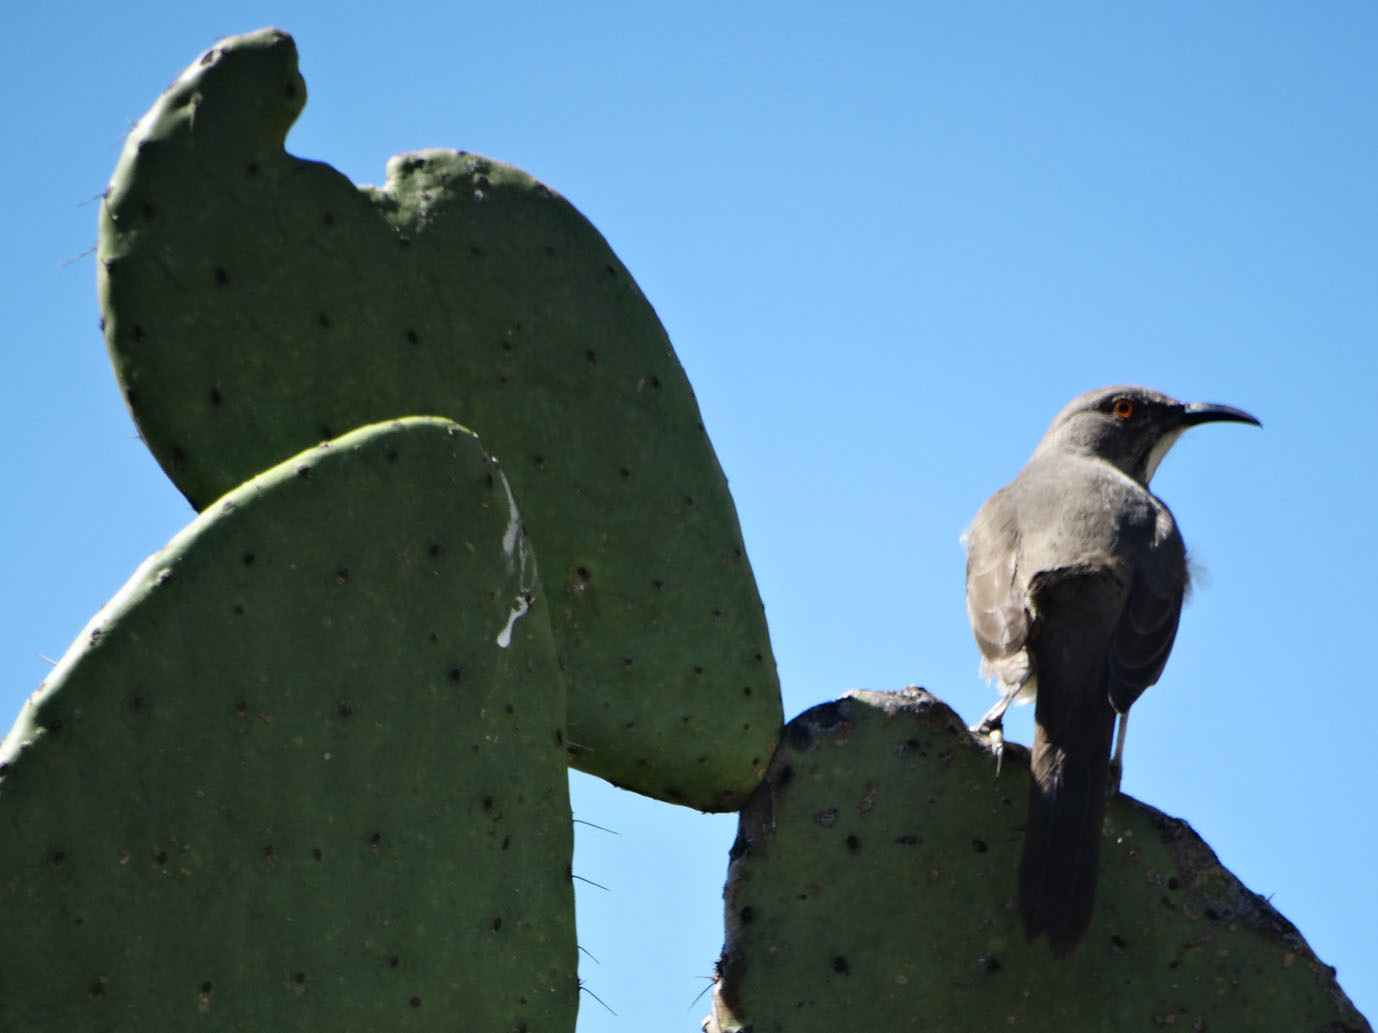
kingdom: Animalia
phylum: Chordata
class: Aves
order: Passeriformes
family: Mimidae
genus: Toxostoma
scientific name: Toxostoma curvirostre
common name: Curve-billed thrasher
